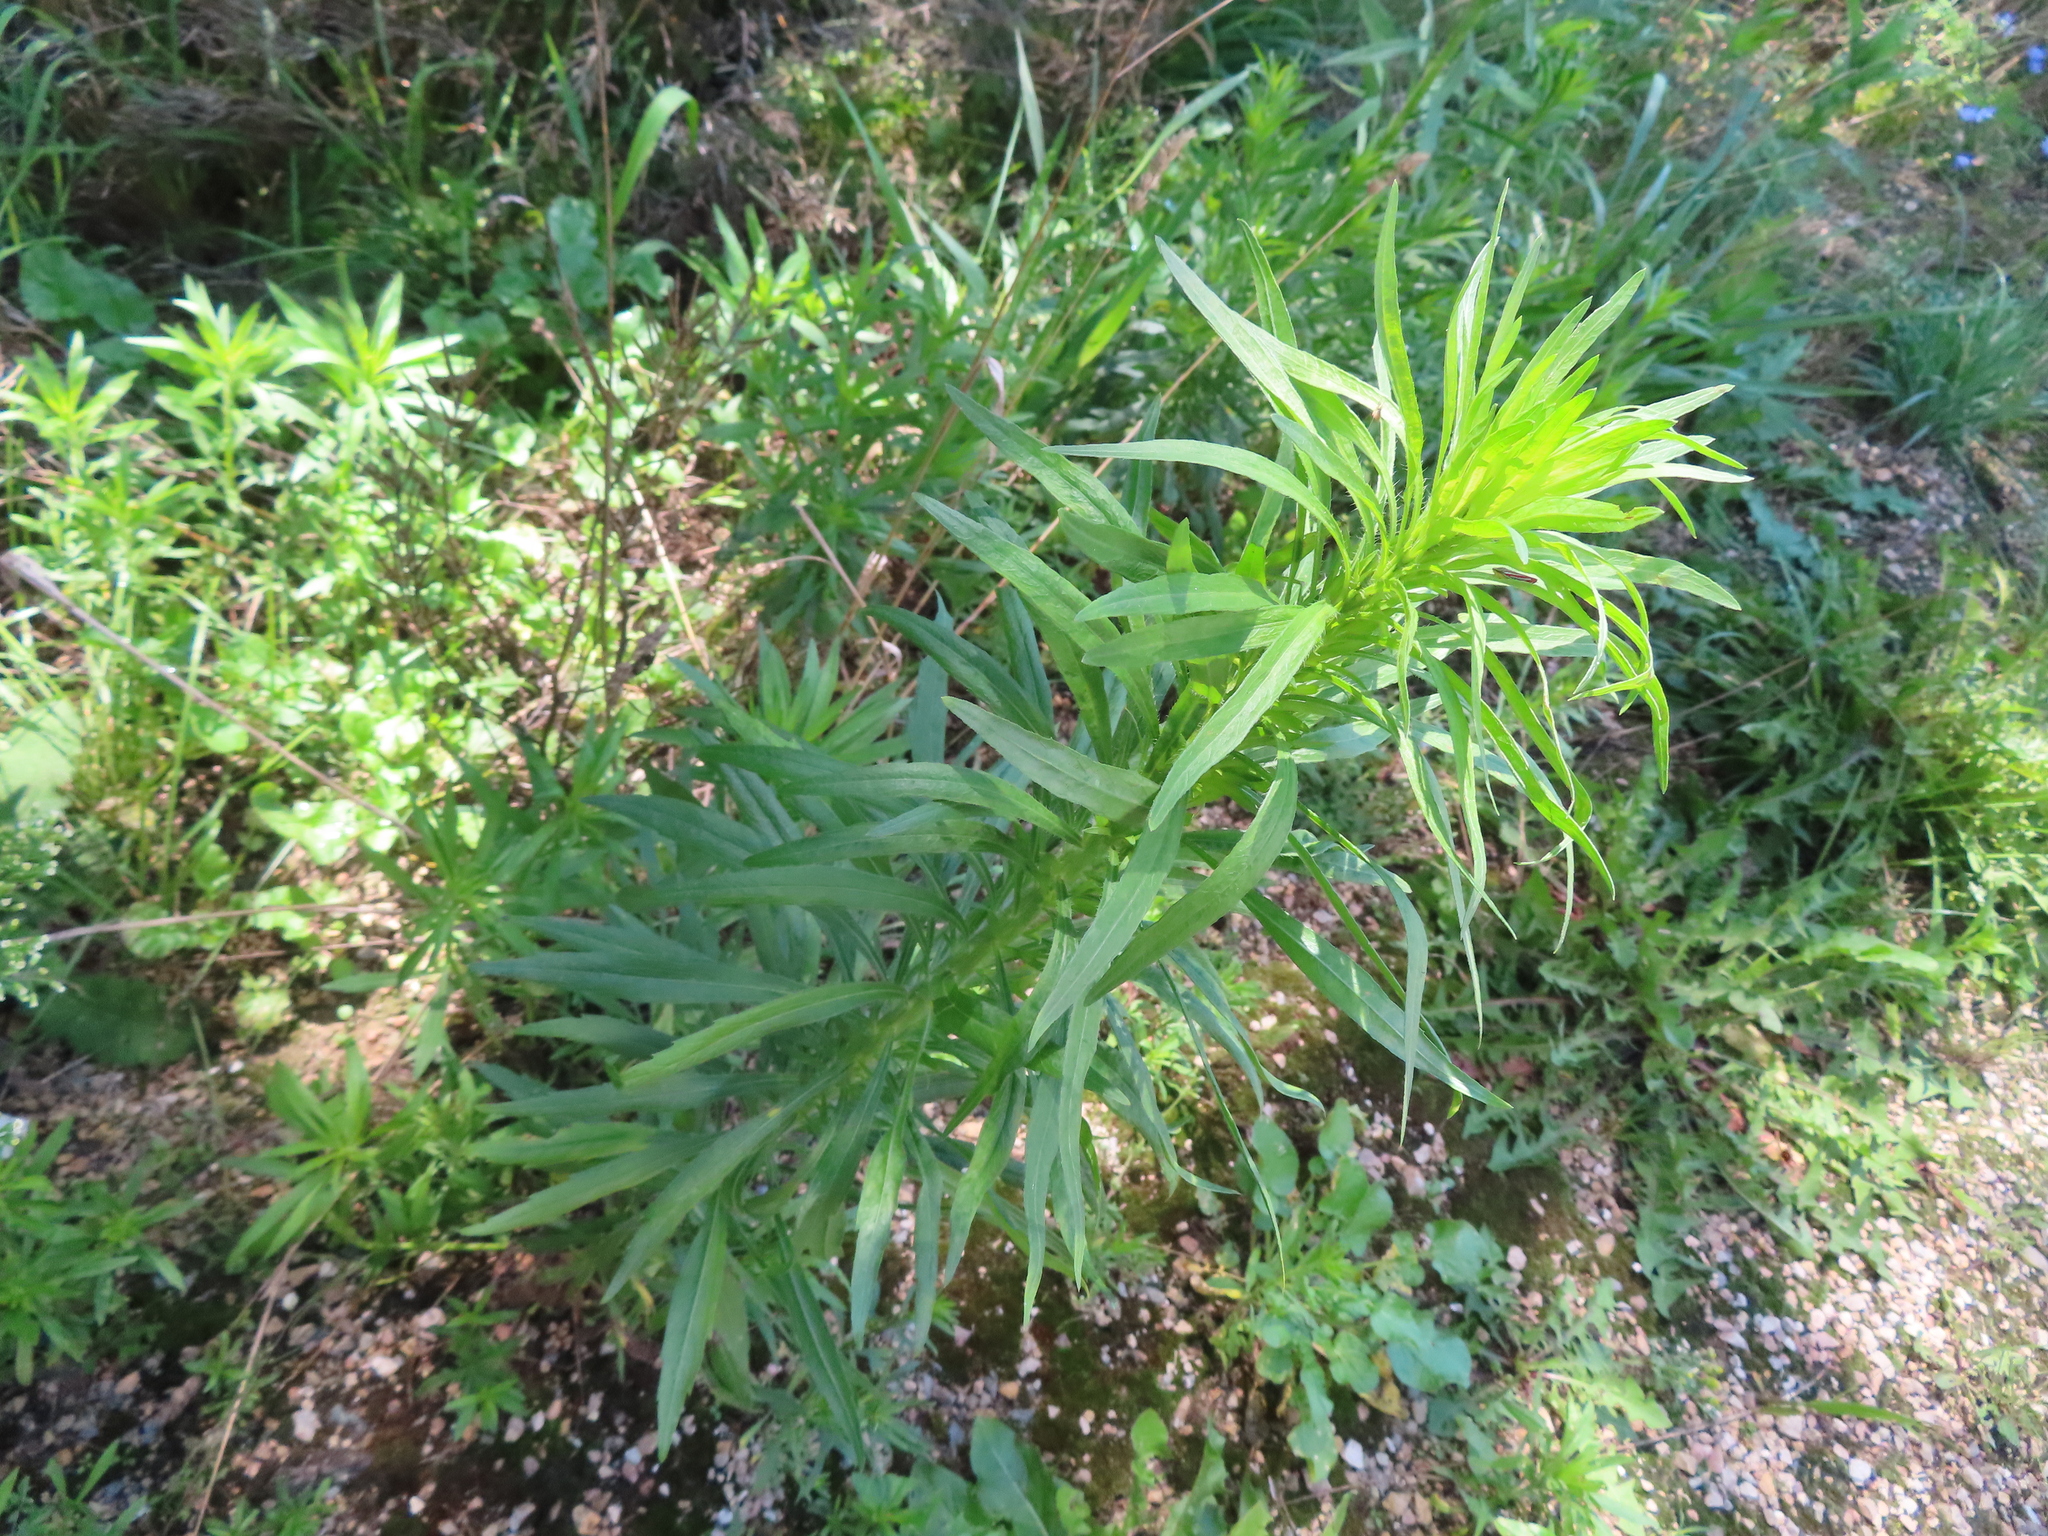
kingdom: Plantae
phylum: Tracheophyta
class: Magnoliopsida
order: Asterales
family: Asteraceae
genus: Erigeron
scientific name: Erigeron canadensis
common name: Canadian fleabane
